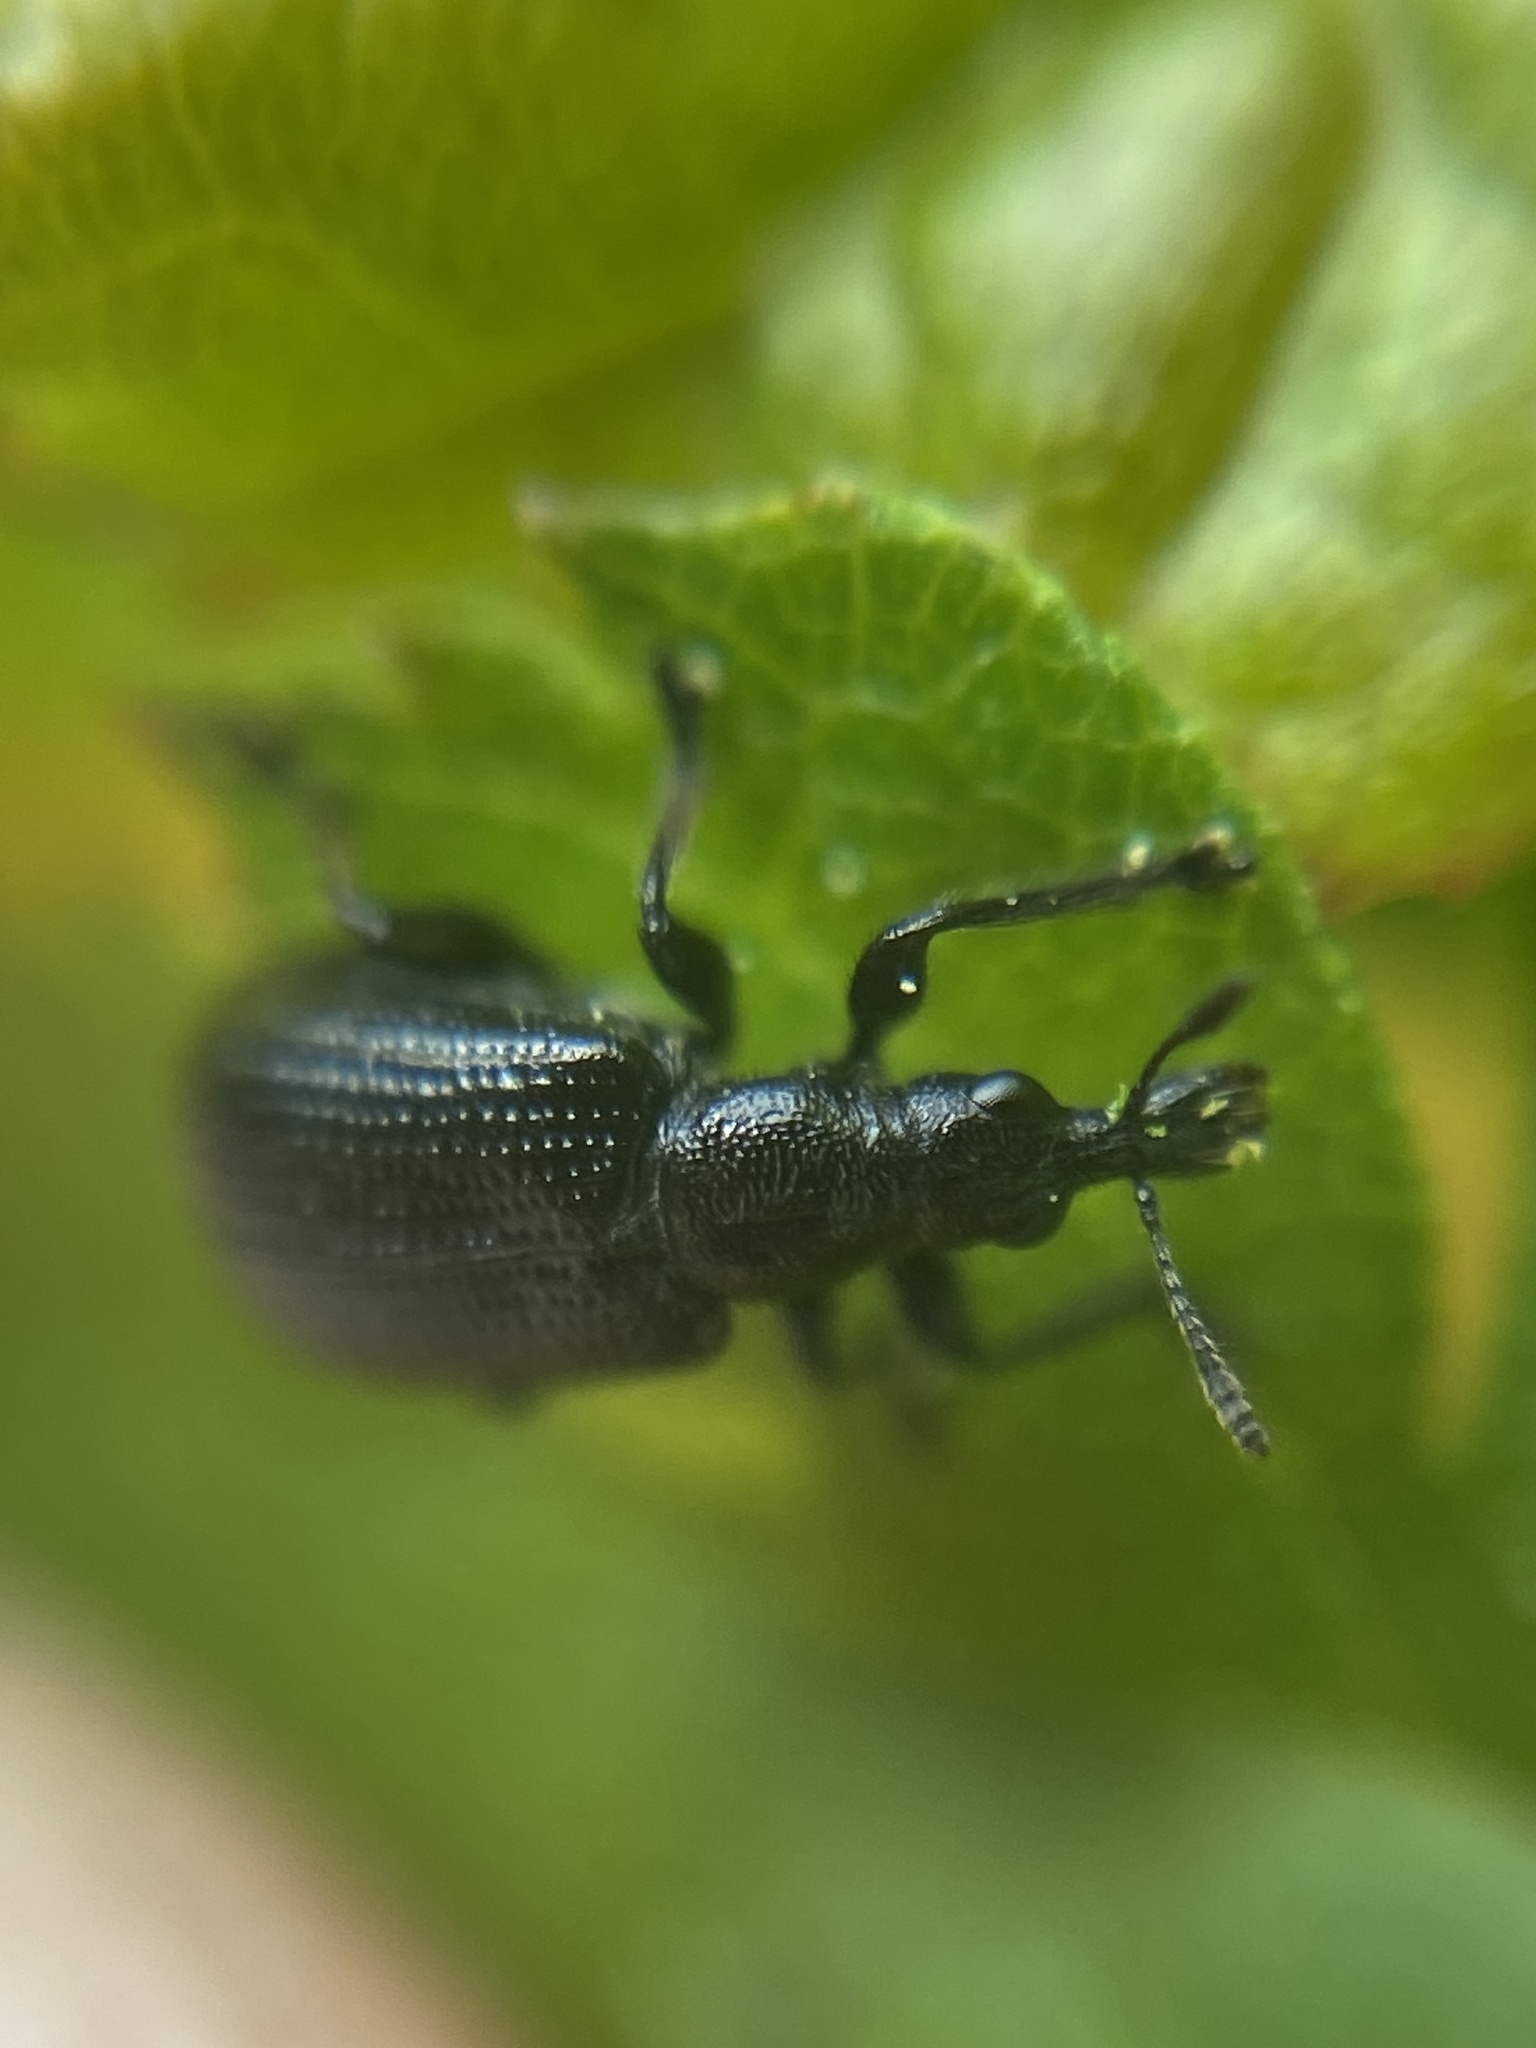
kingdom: Animalia
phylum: Arthropoda
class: Insecta
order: Coleoptera
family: Attelabidae
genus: Deporaus
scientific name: Deporaus betulae
